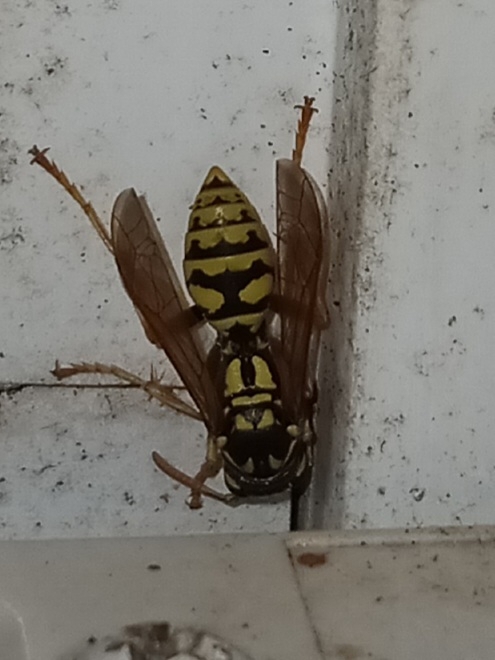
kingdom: Animalia
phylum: Arthropoda
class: Insecta
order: Hymenoptera
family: Eumenidae
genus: Polistes
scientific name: Polistes dominula
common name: Paper wasp
